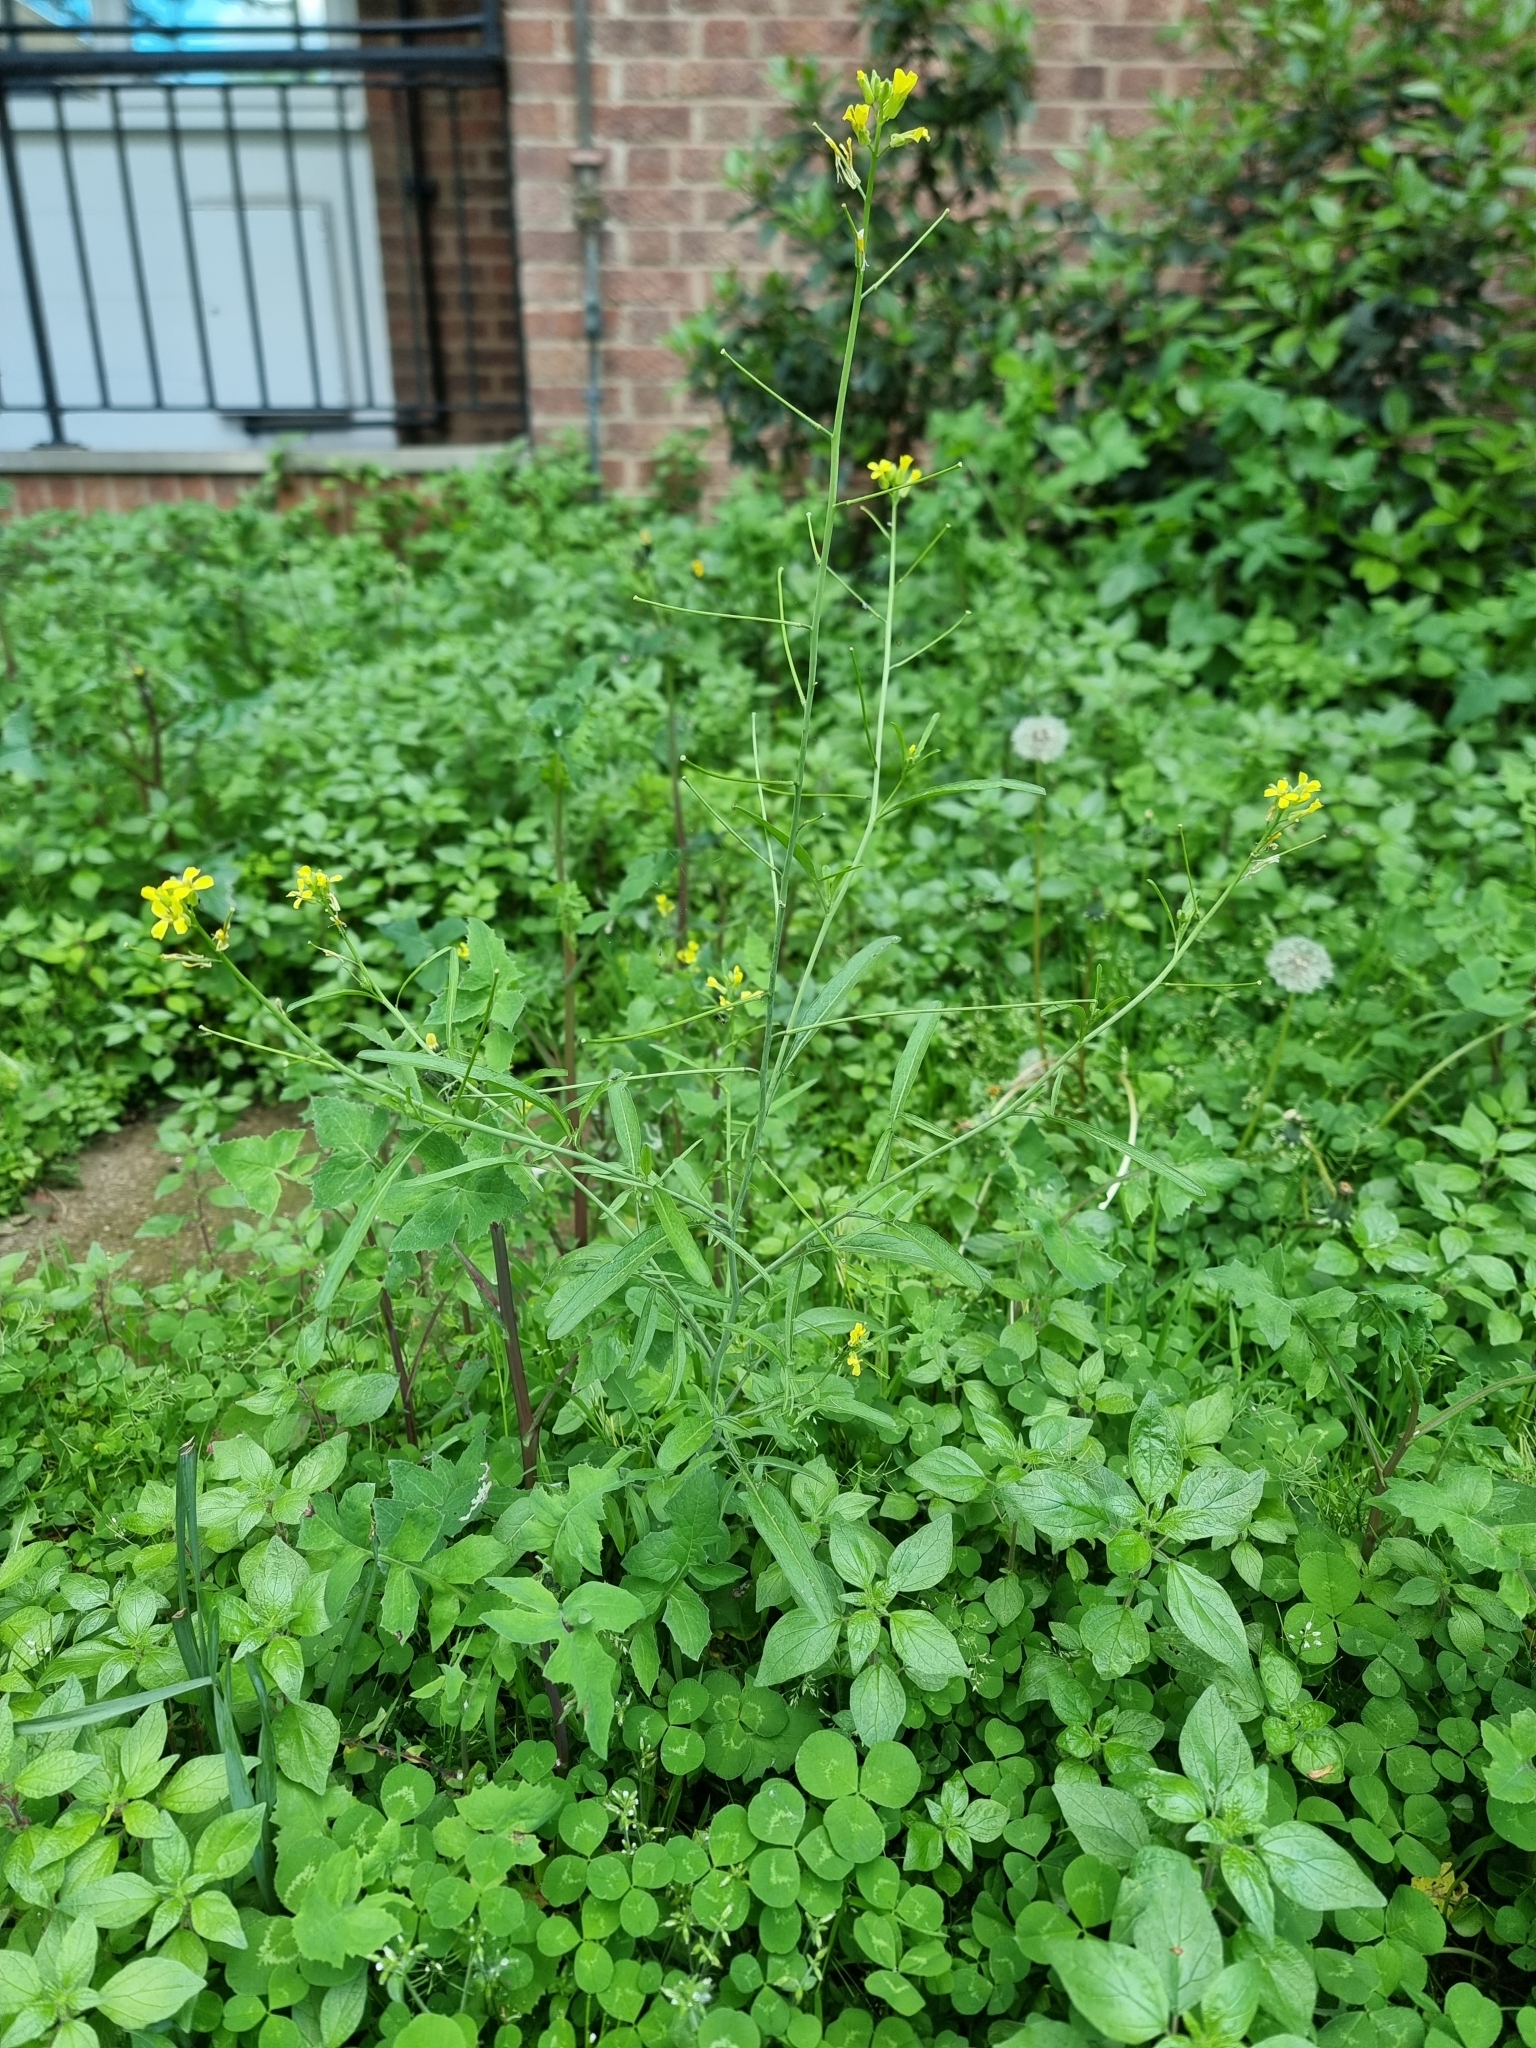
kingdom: Plantae
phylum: Tracheophyta
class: Magnoliopsida
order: Brassicales
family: Brassicaceae
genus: Sisymbrium
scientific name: Sisymbrium orientale
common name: Eastern rocket
